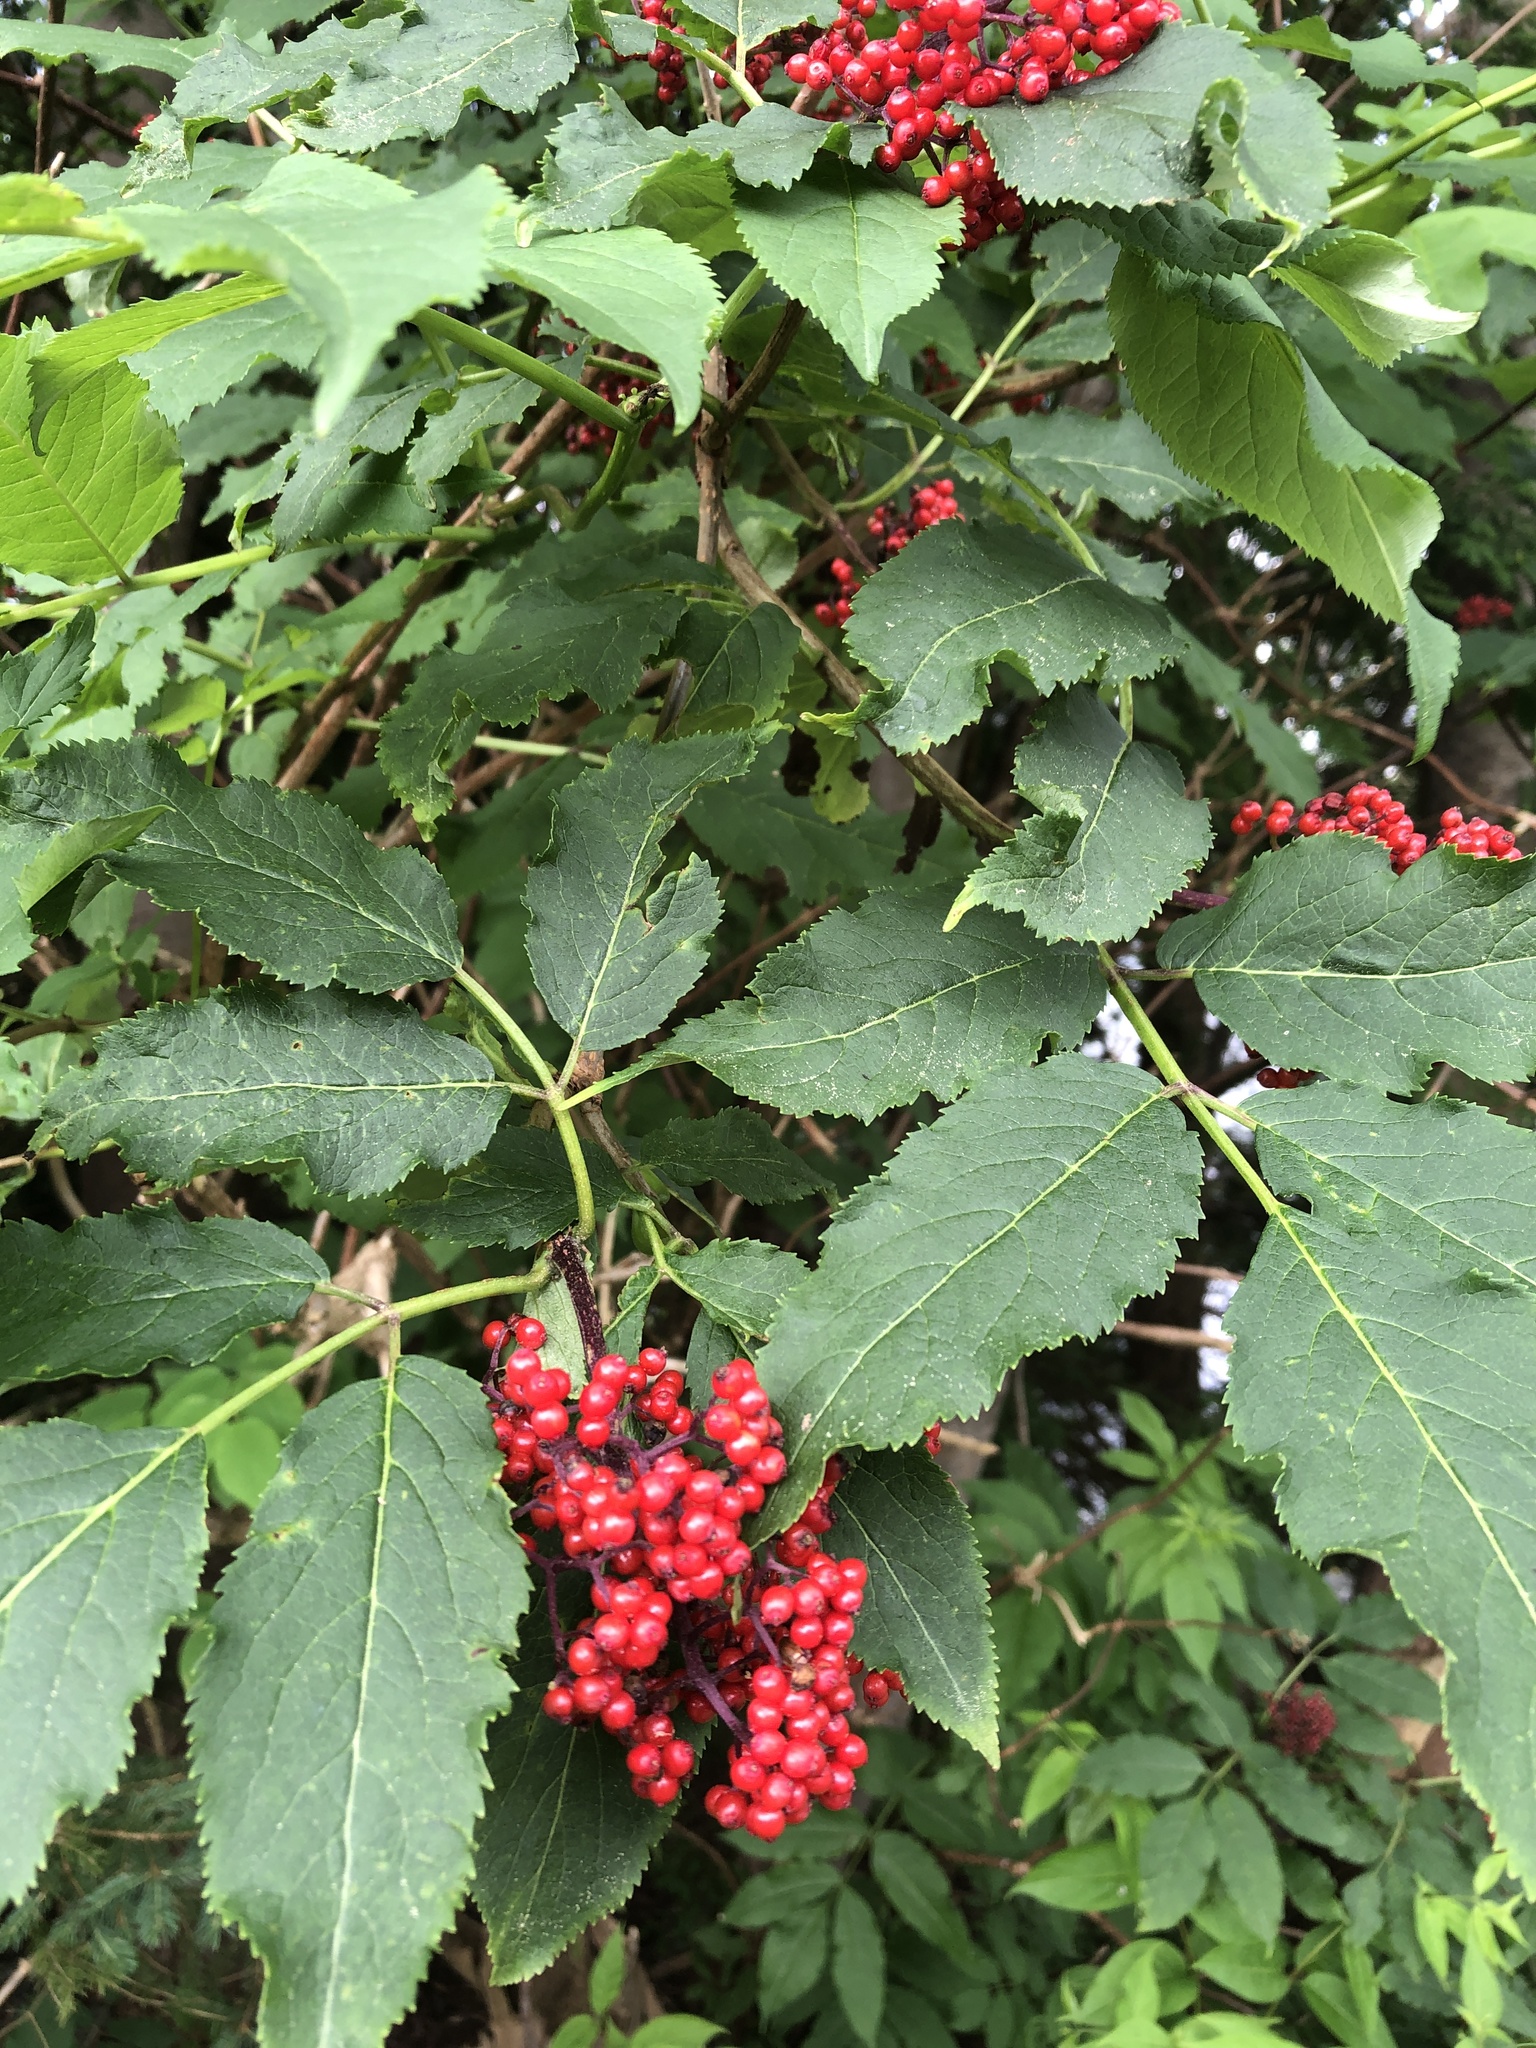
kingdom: Plantae
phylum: Tracheophyta
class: Magnoliopsida
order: Dipsacales
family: Viburnaceae
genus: Sambucus
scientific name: Sambucus racemosa
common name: Red-berried elder
